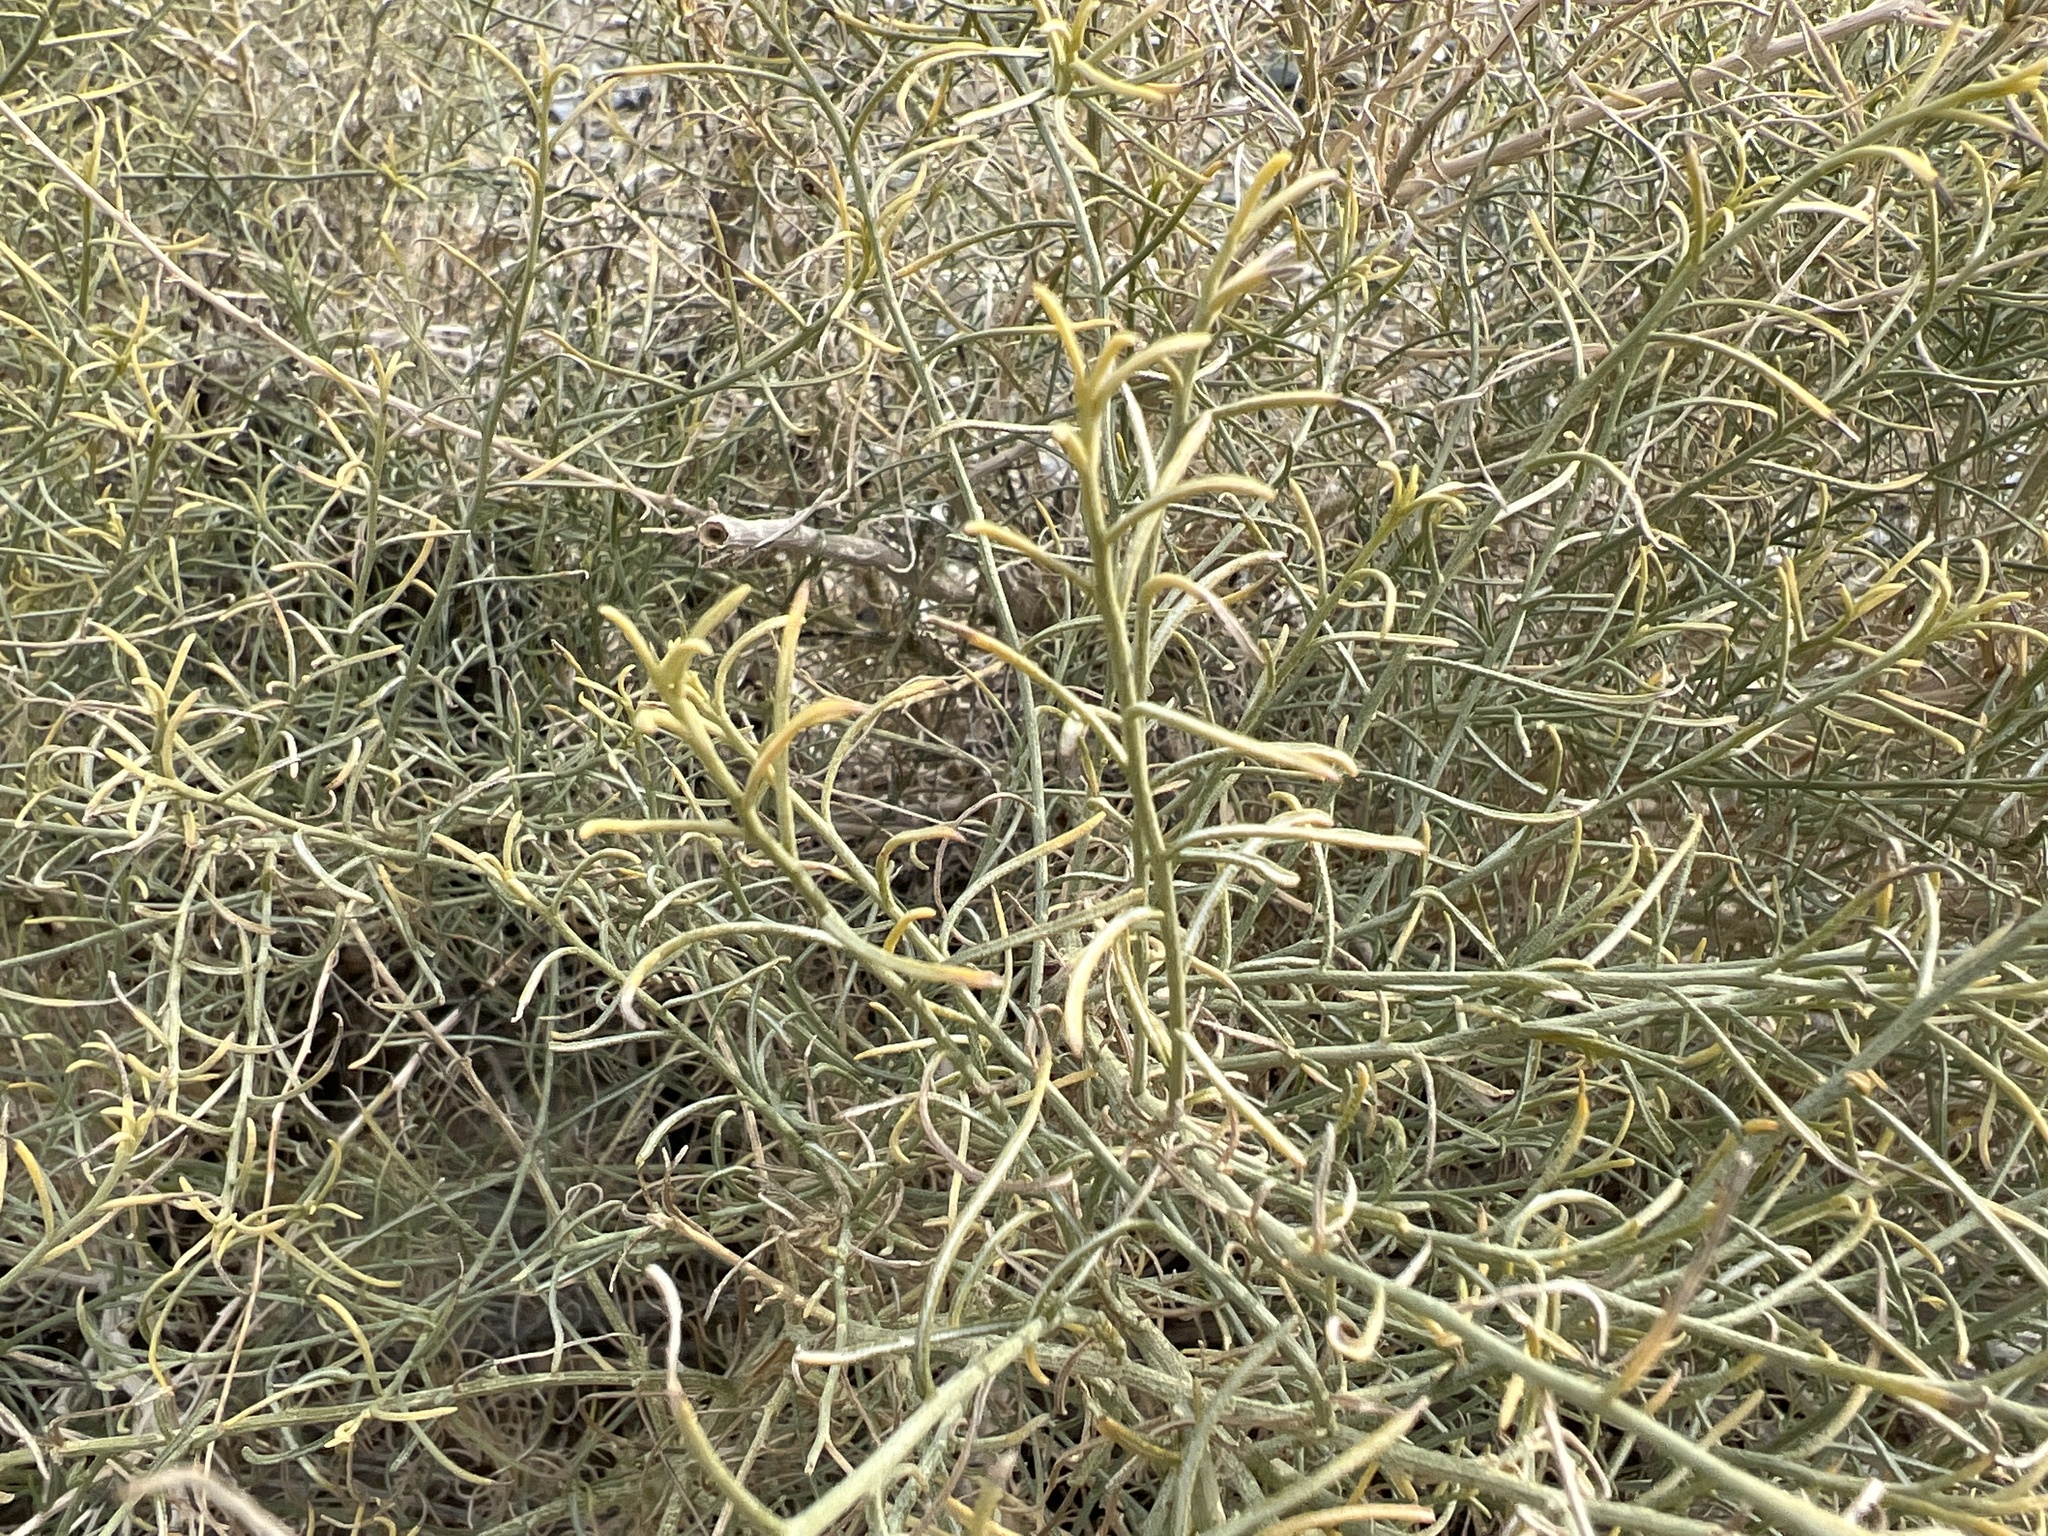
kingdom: Plantae
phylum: Tracheophyta
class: Magnoliopsida
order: Asterales
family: Asteraceae
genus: Ambrosia
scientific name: Ambrosia salsola
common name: Burrobrush
